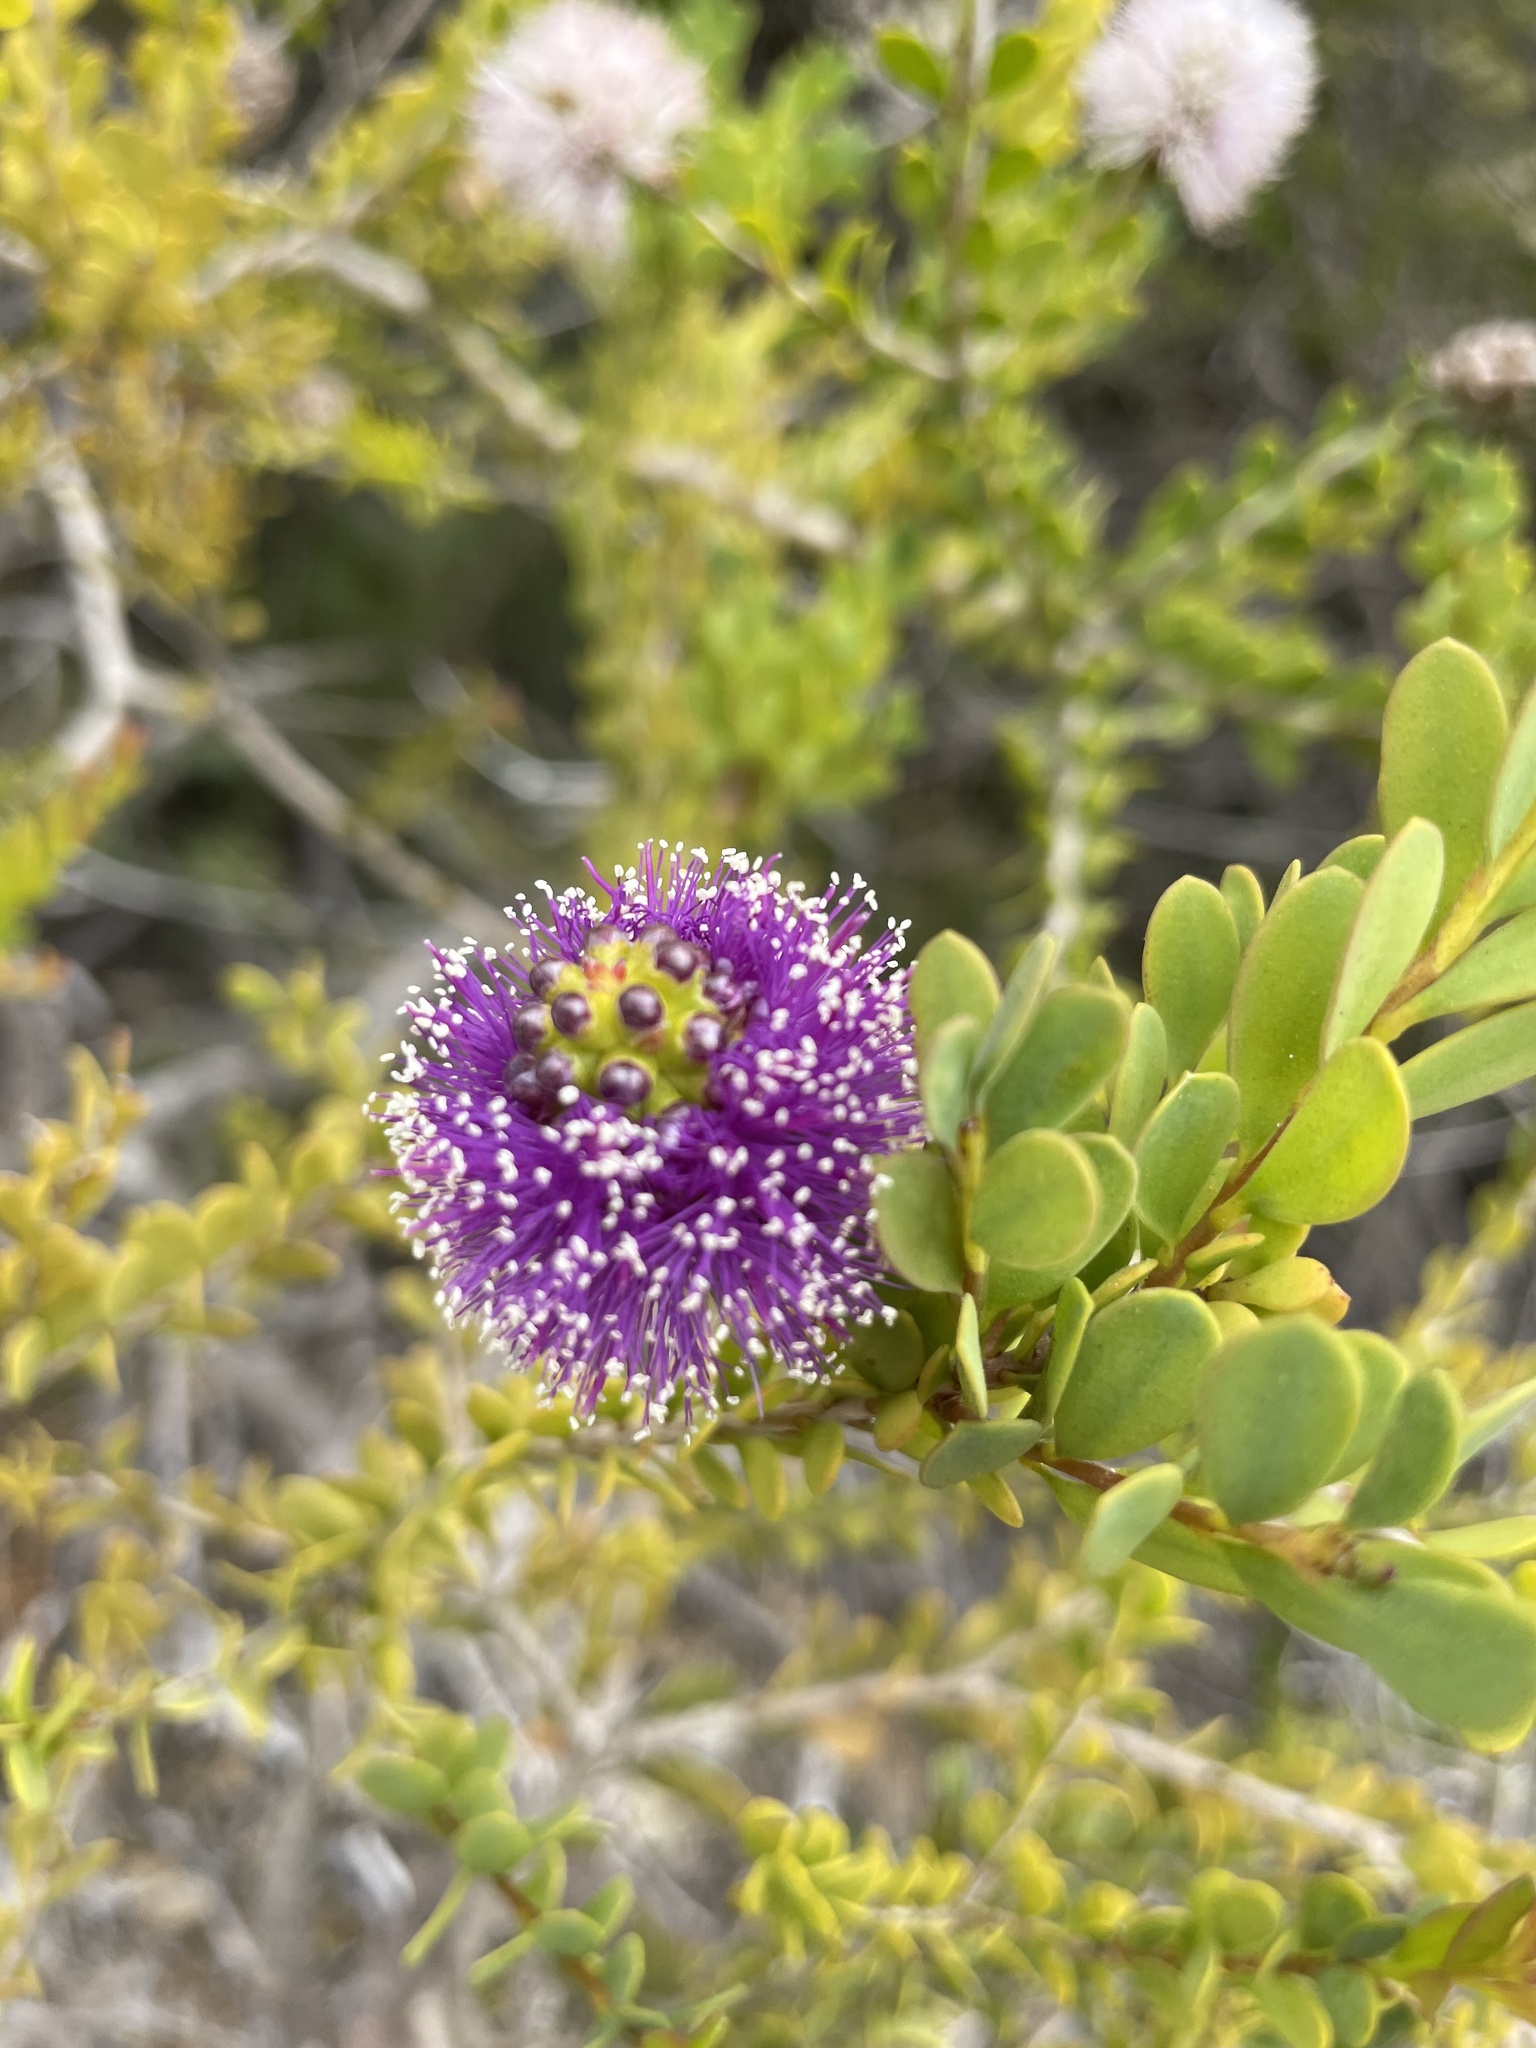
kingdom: Plantae
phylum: Tracheophyta
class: Magnoliopsida
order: Myrtales
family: Myrtaceae
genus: Melaleuca
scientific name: Melaleuca nesophila
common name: Mauve honey myrtle
